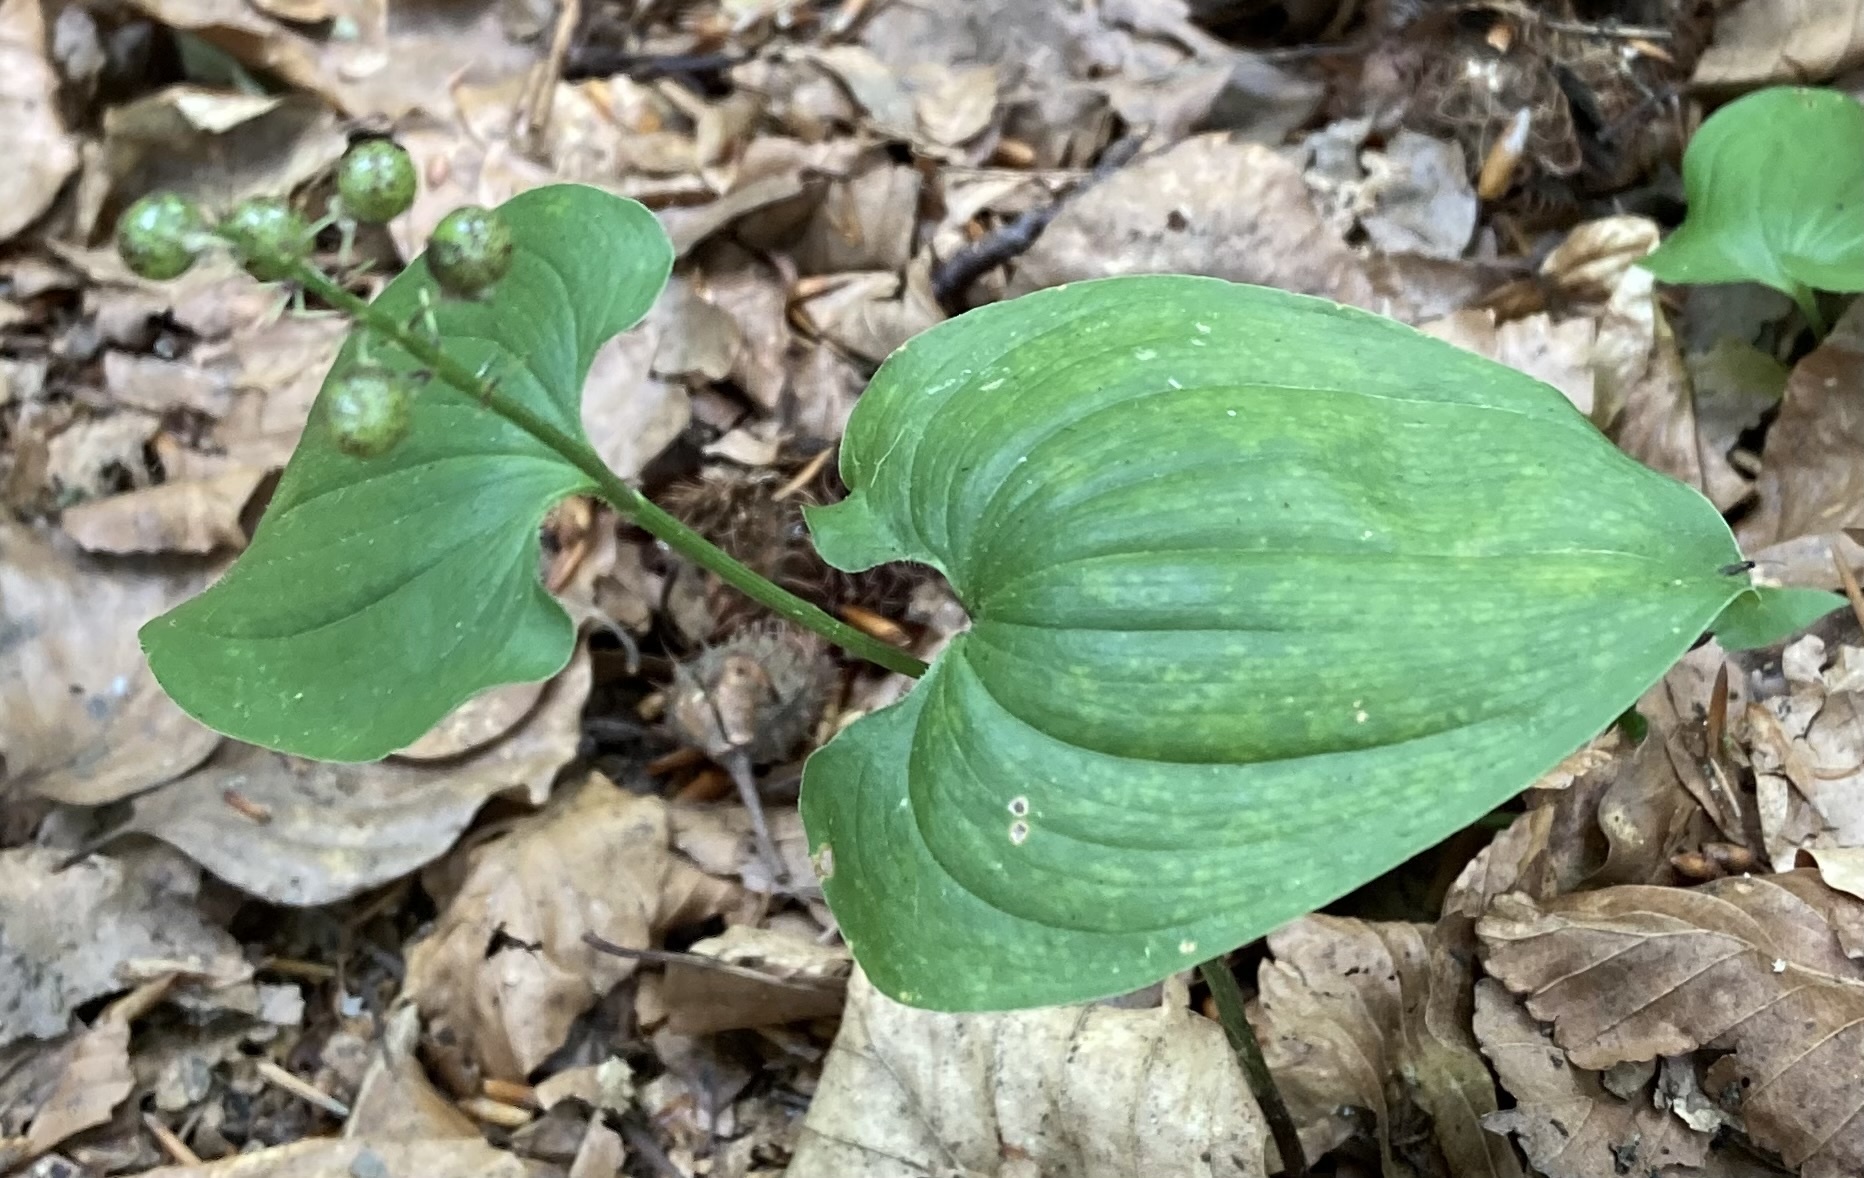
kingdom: Plantae
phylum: Tracheophyta
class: Liliopsida
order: Asparagales
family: Asparagaceae
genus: Maianthemum
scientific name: Maianthemum bifolium
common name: May lily
